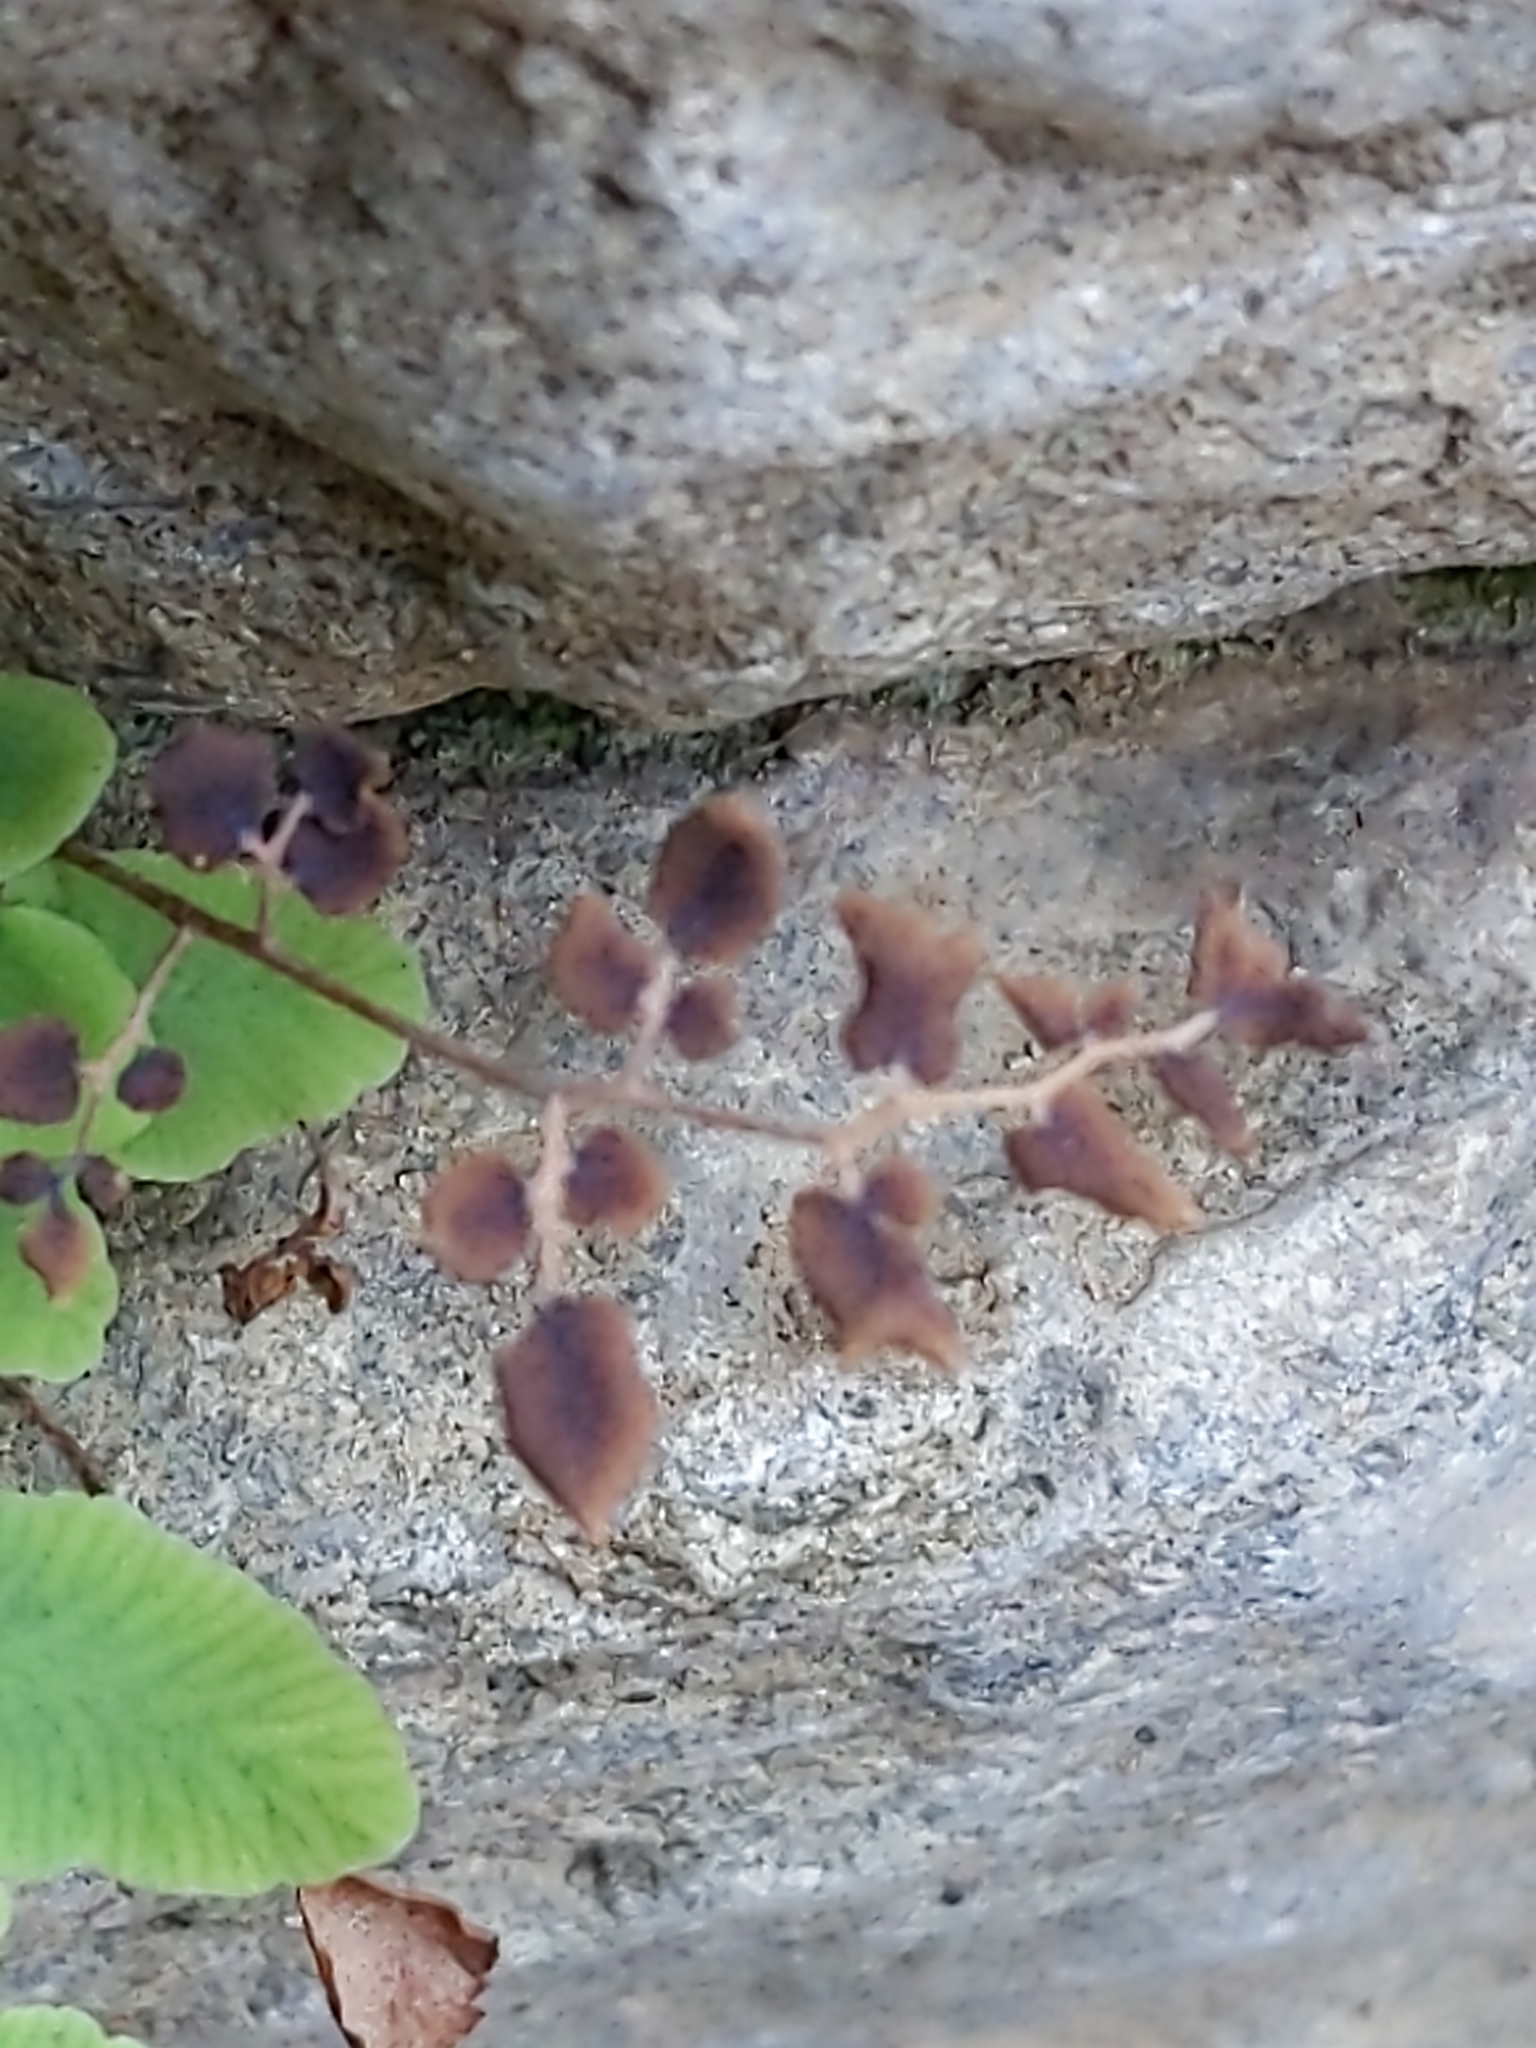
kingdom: Plantae
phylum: Tracheophyta
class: Polypodiopsida
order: Polypodiales
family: Pteridaceae
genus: Pellaea
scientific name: Pellaea andromedifolia
